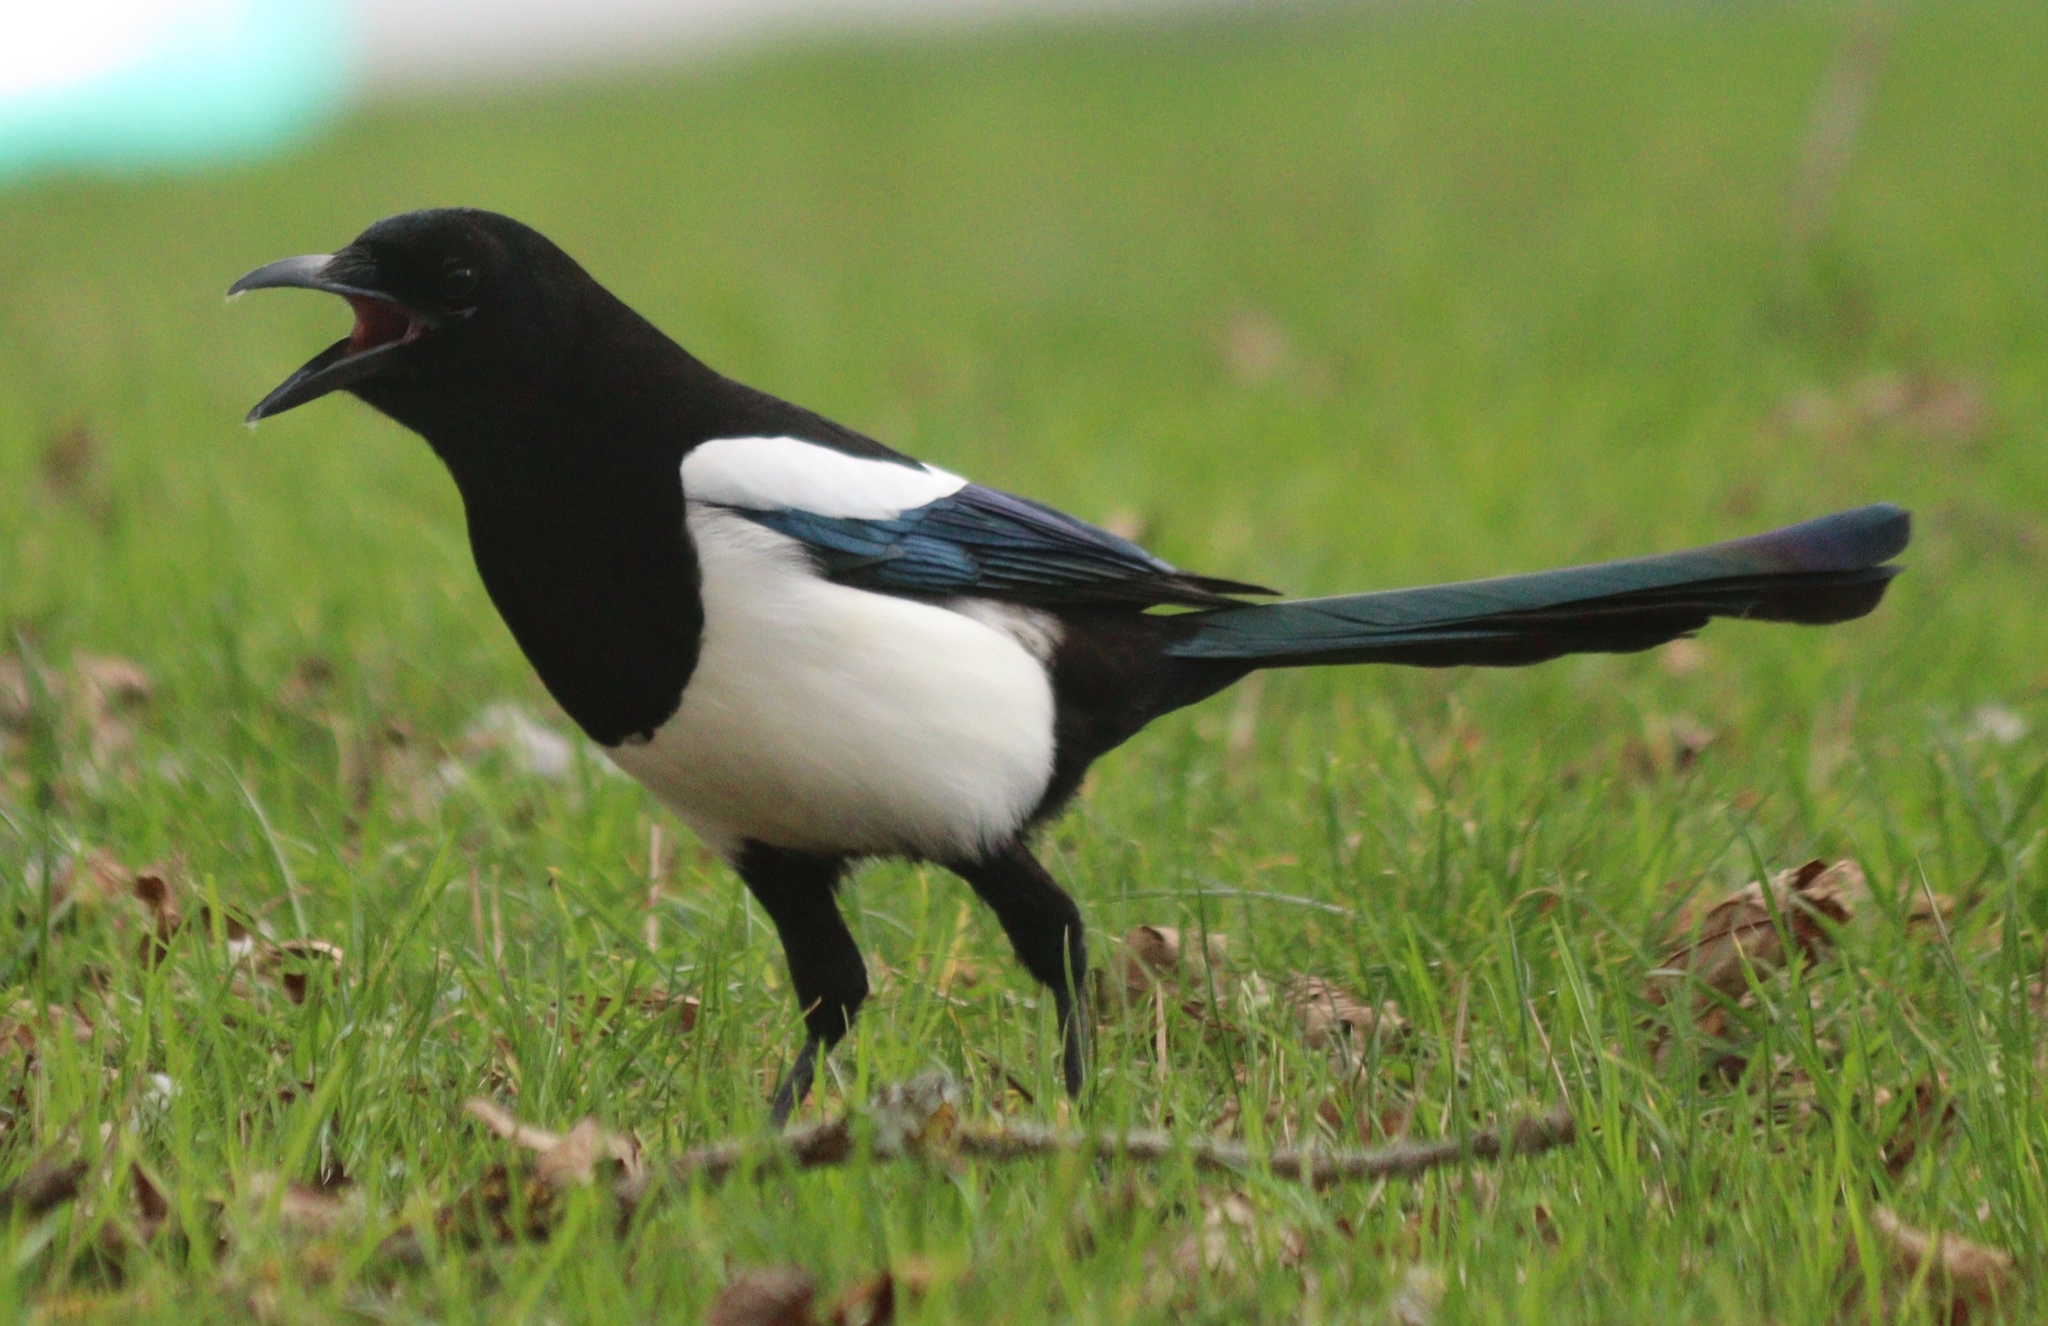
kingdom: Animalia
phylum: Chordata
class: Aves
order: Passeriformes
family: Corvidae
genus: Pica
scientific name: Pica pica
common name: Eurasian magpie
